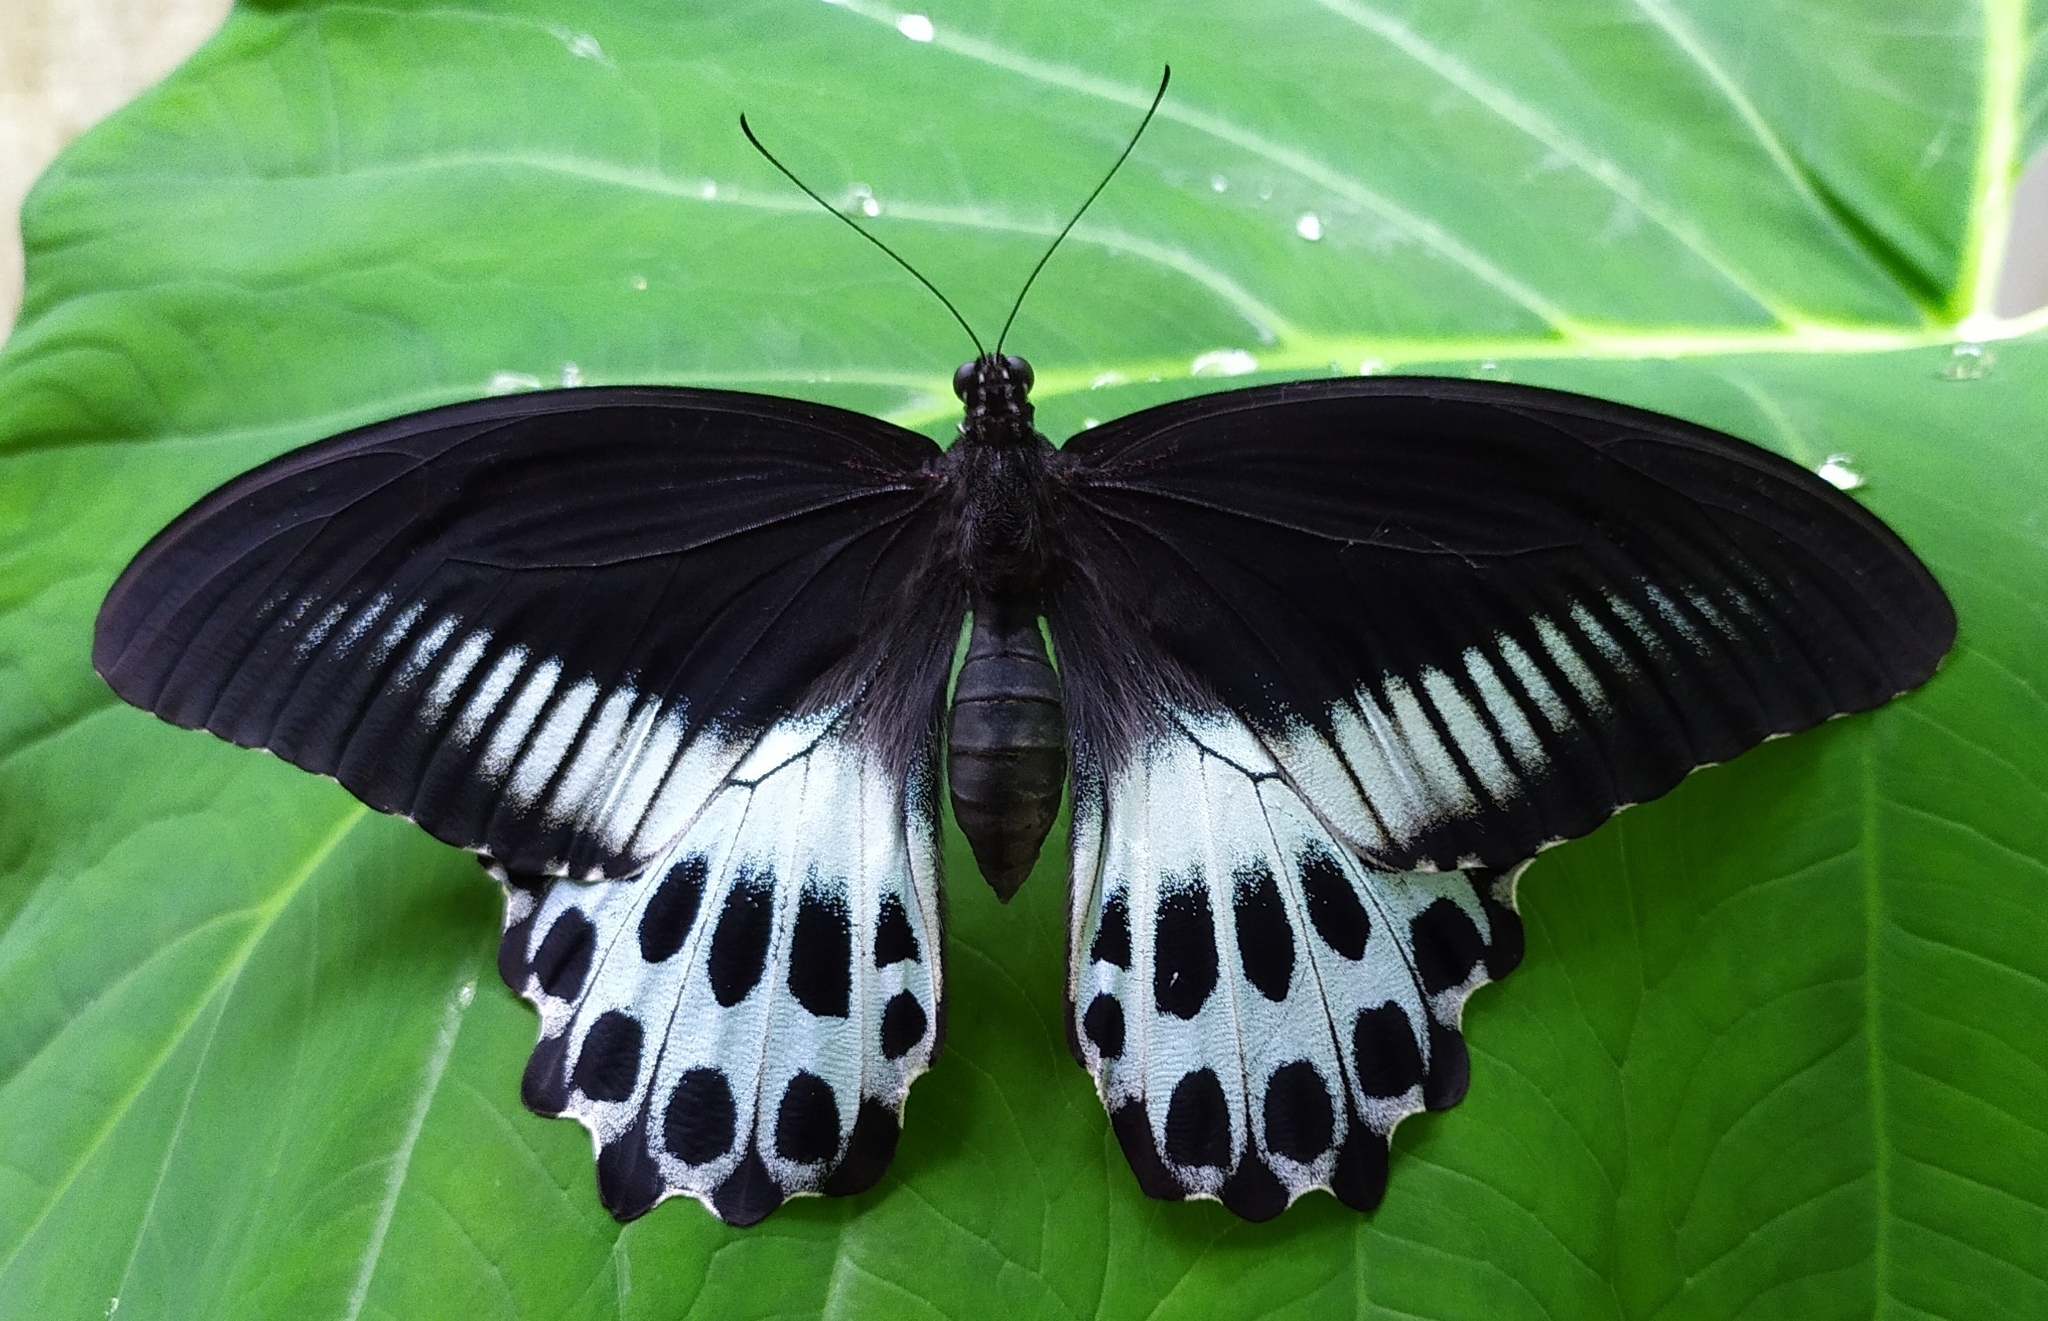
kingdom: Animalia
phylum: Arthropoda
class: Insecta
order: Lepidoptera
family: Papilionidae
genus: Papilio
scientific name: Papilio memnon
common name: Great mormon
